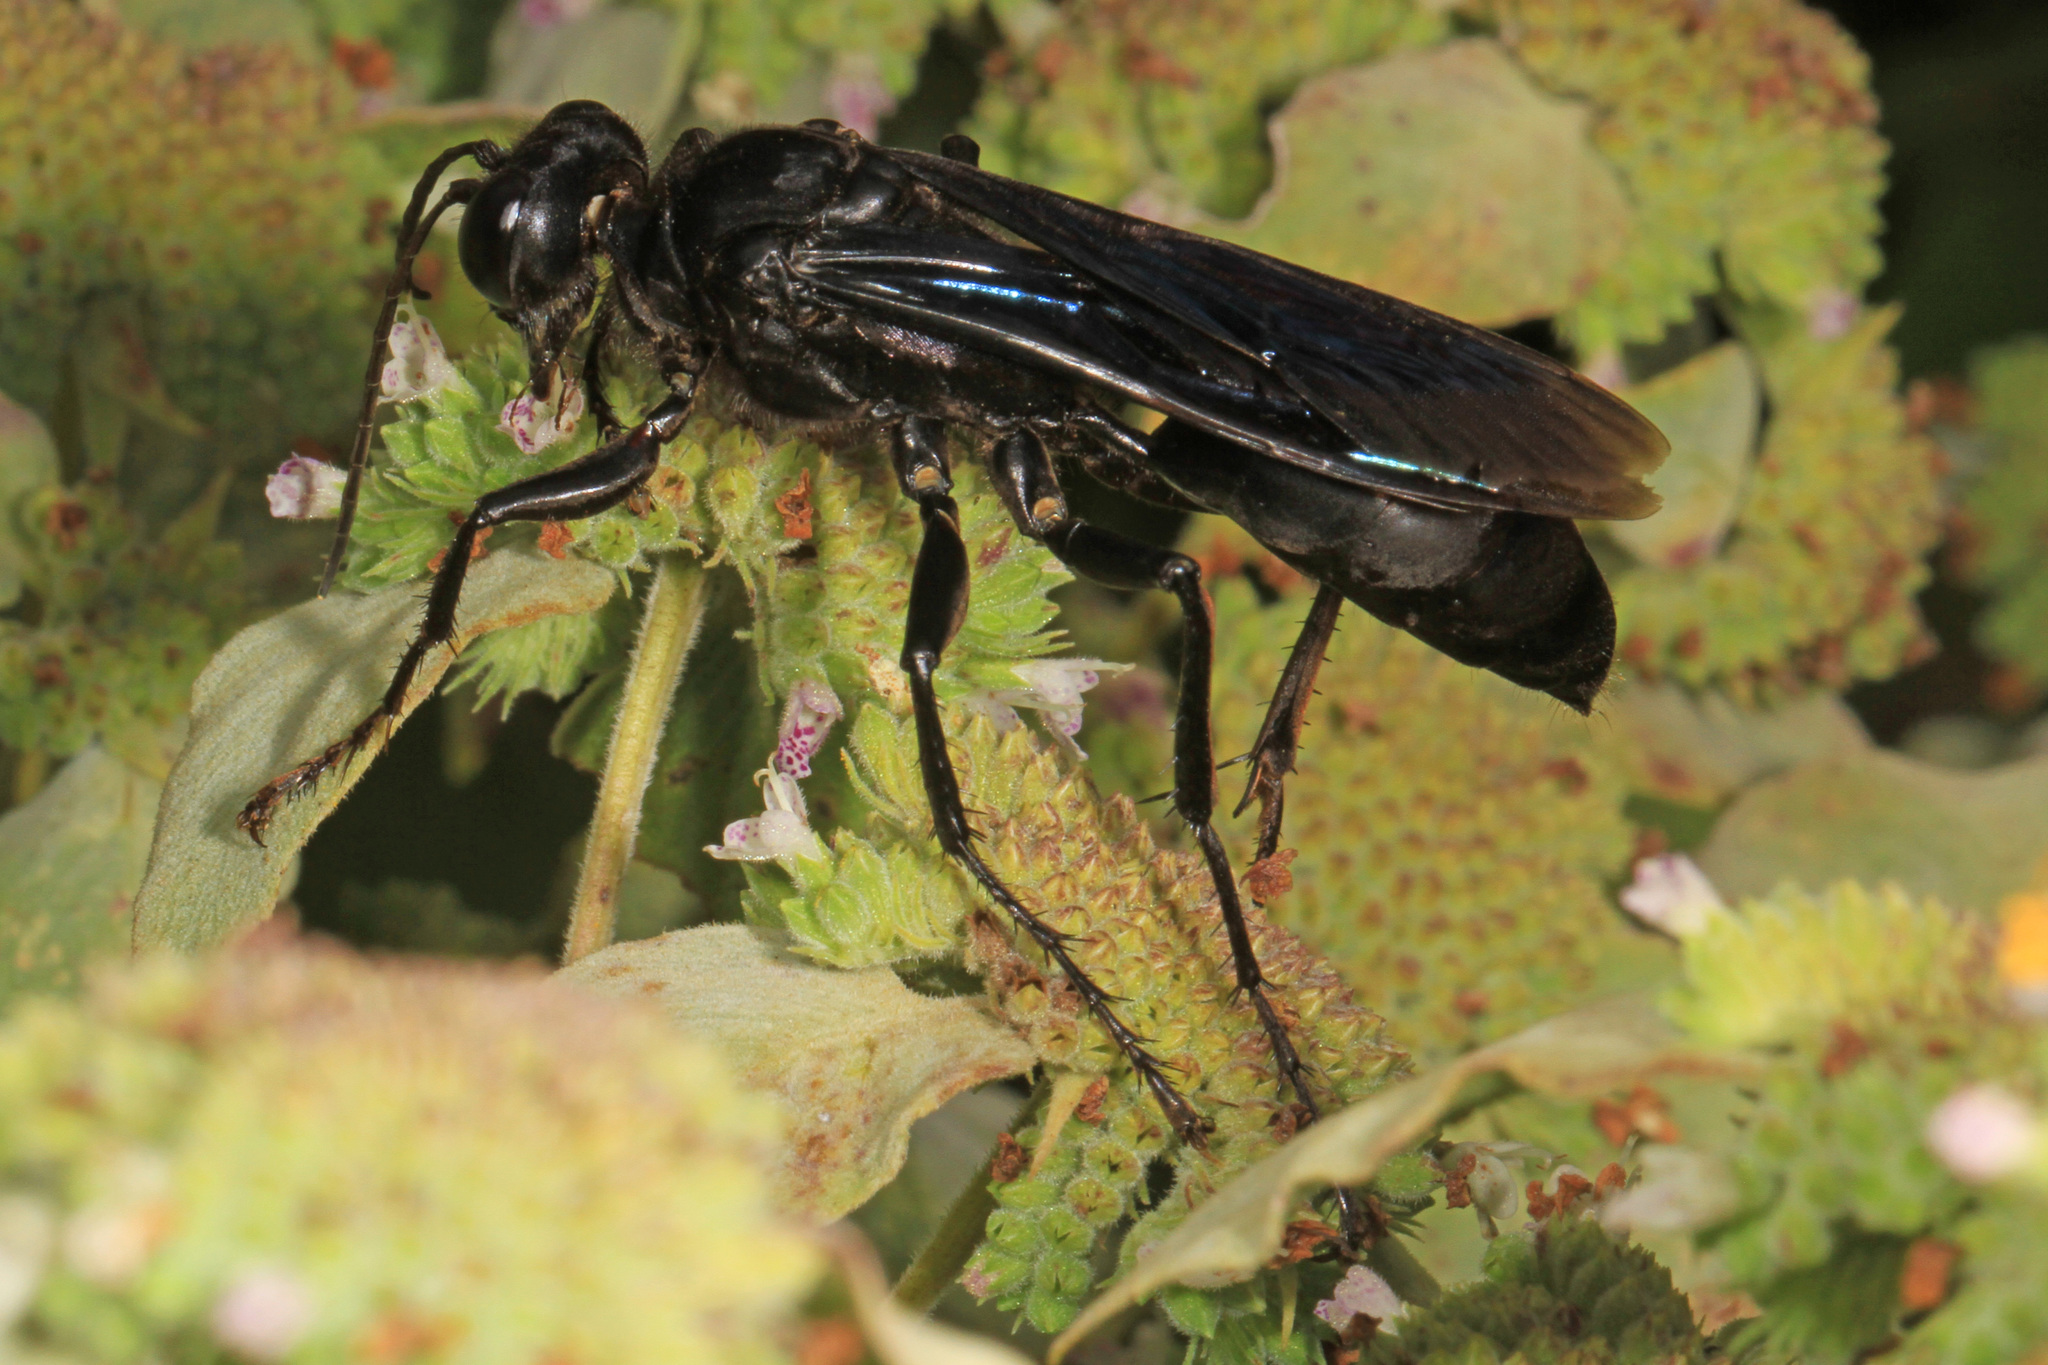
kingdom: Animalia
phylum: Arthropoda
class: Insecta
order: Hymenoptera
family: Sphecidae
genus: Sphex
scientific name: Sphex pensylvanicus
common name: Great black digger wasp
